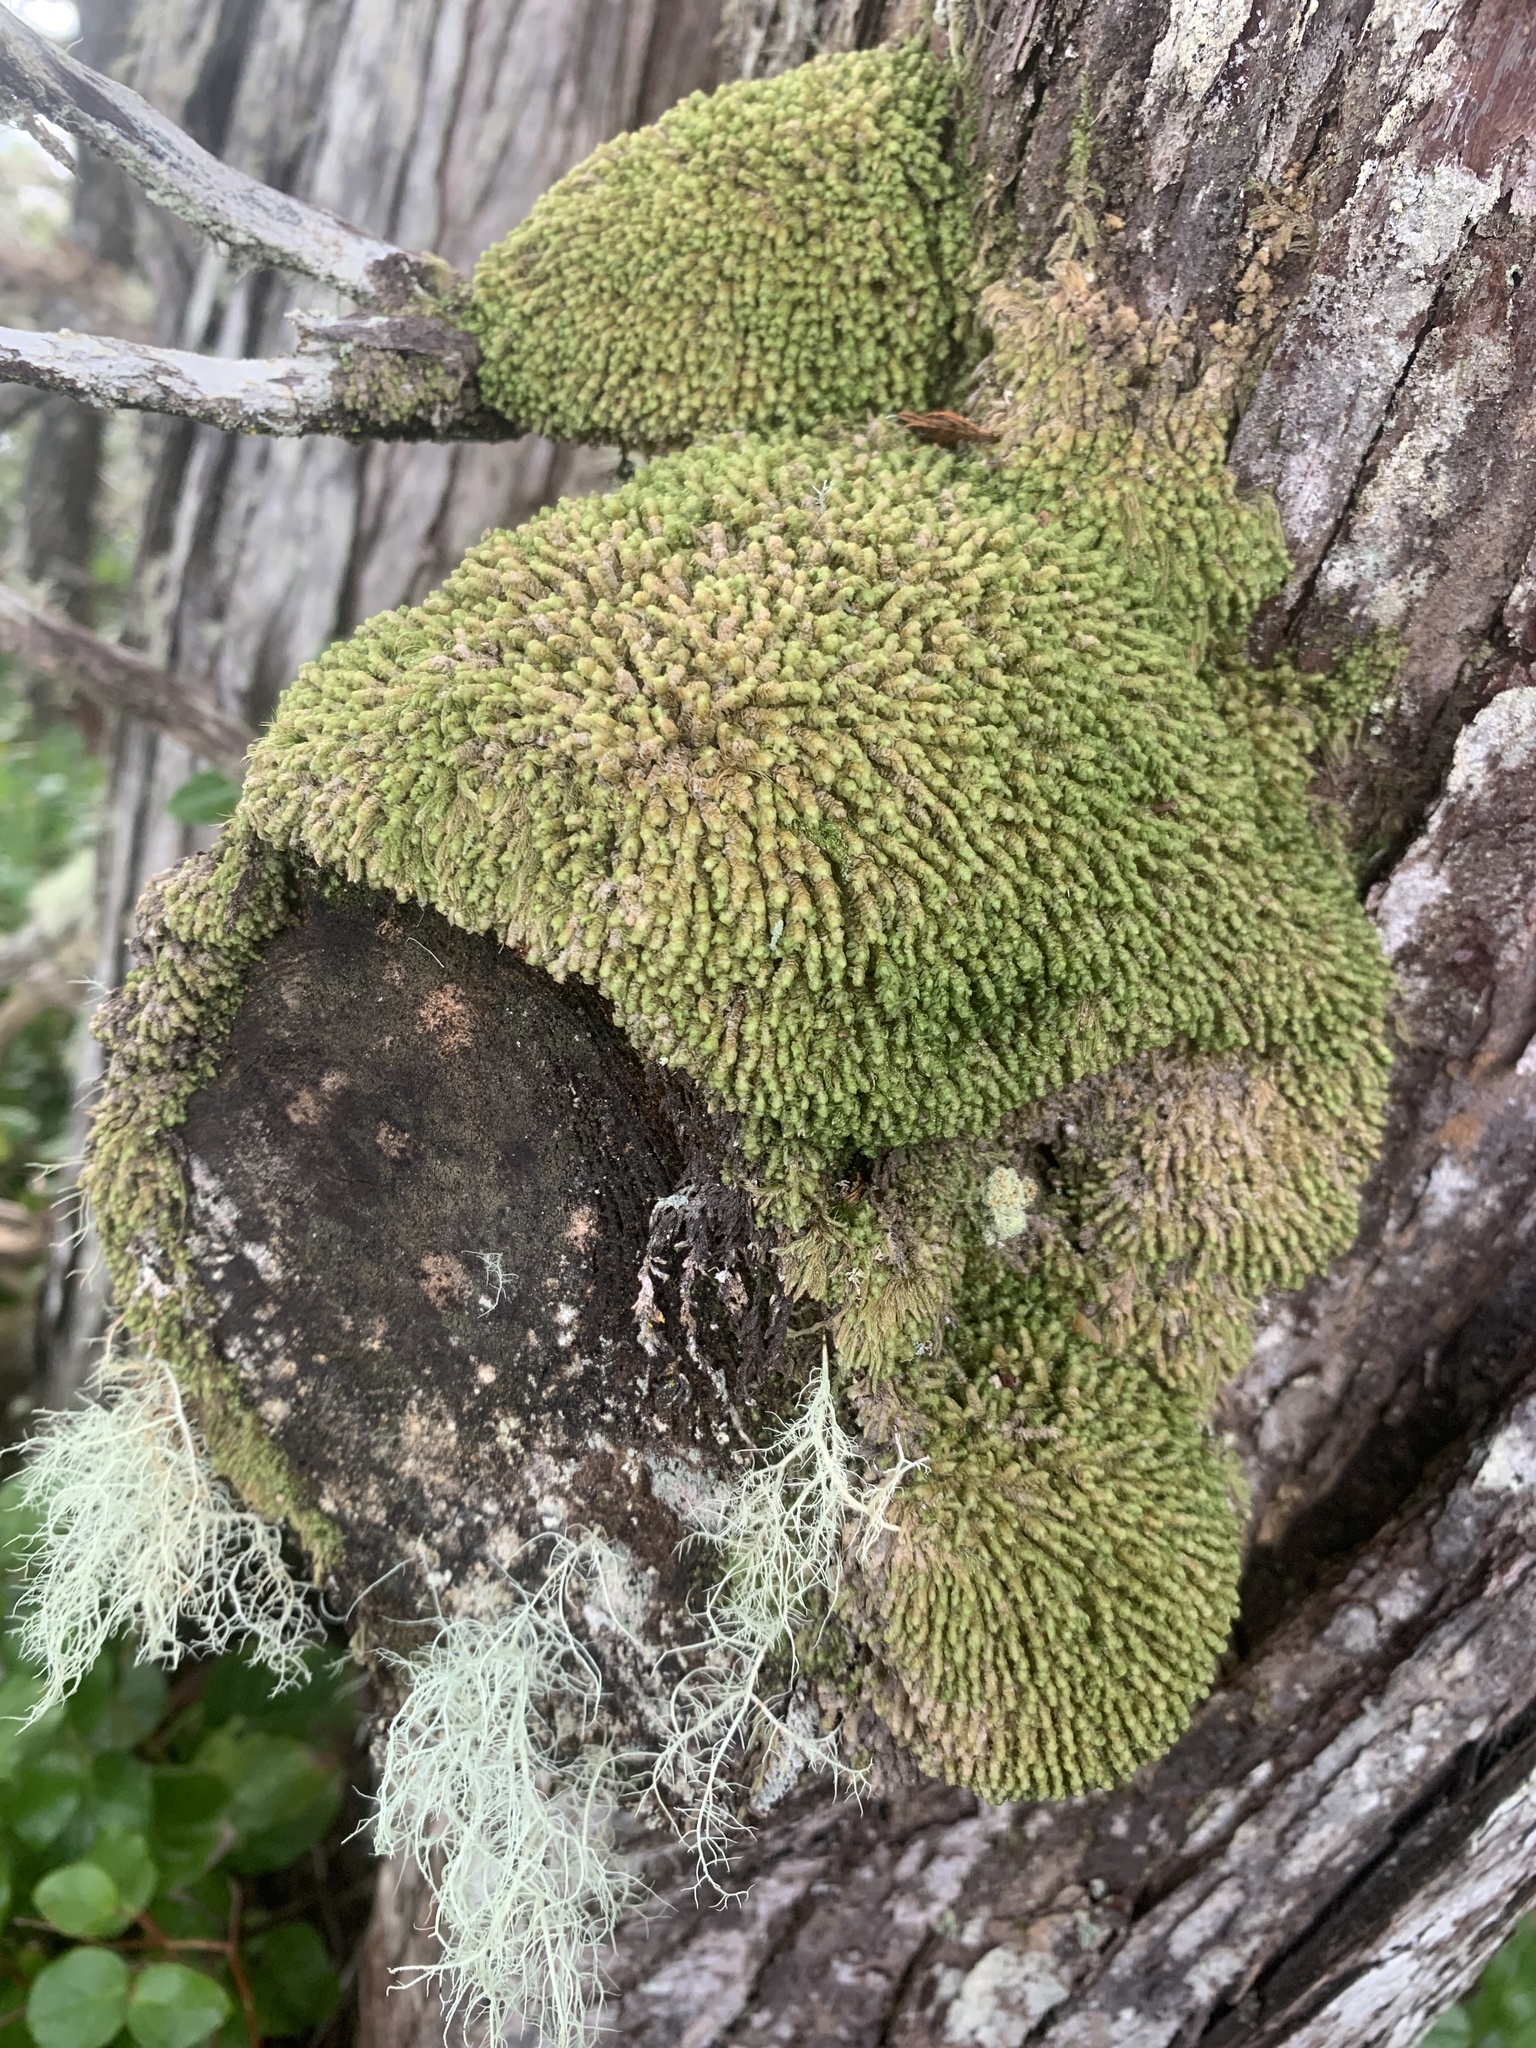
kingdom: Plantae
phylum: Marchantiophyta
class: Jungermanniopsida
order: Jungermanniales
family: Scapaniaceae
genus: Scapania
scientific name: Scapania bolanderi
